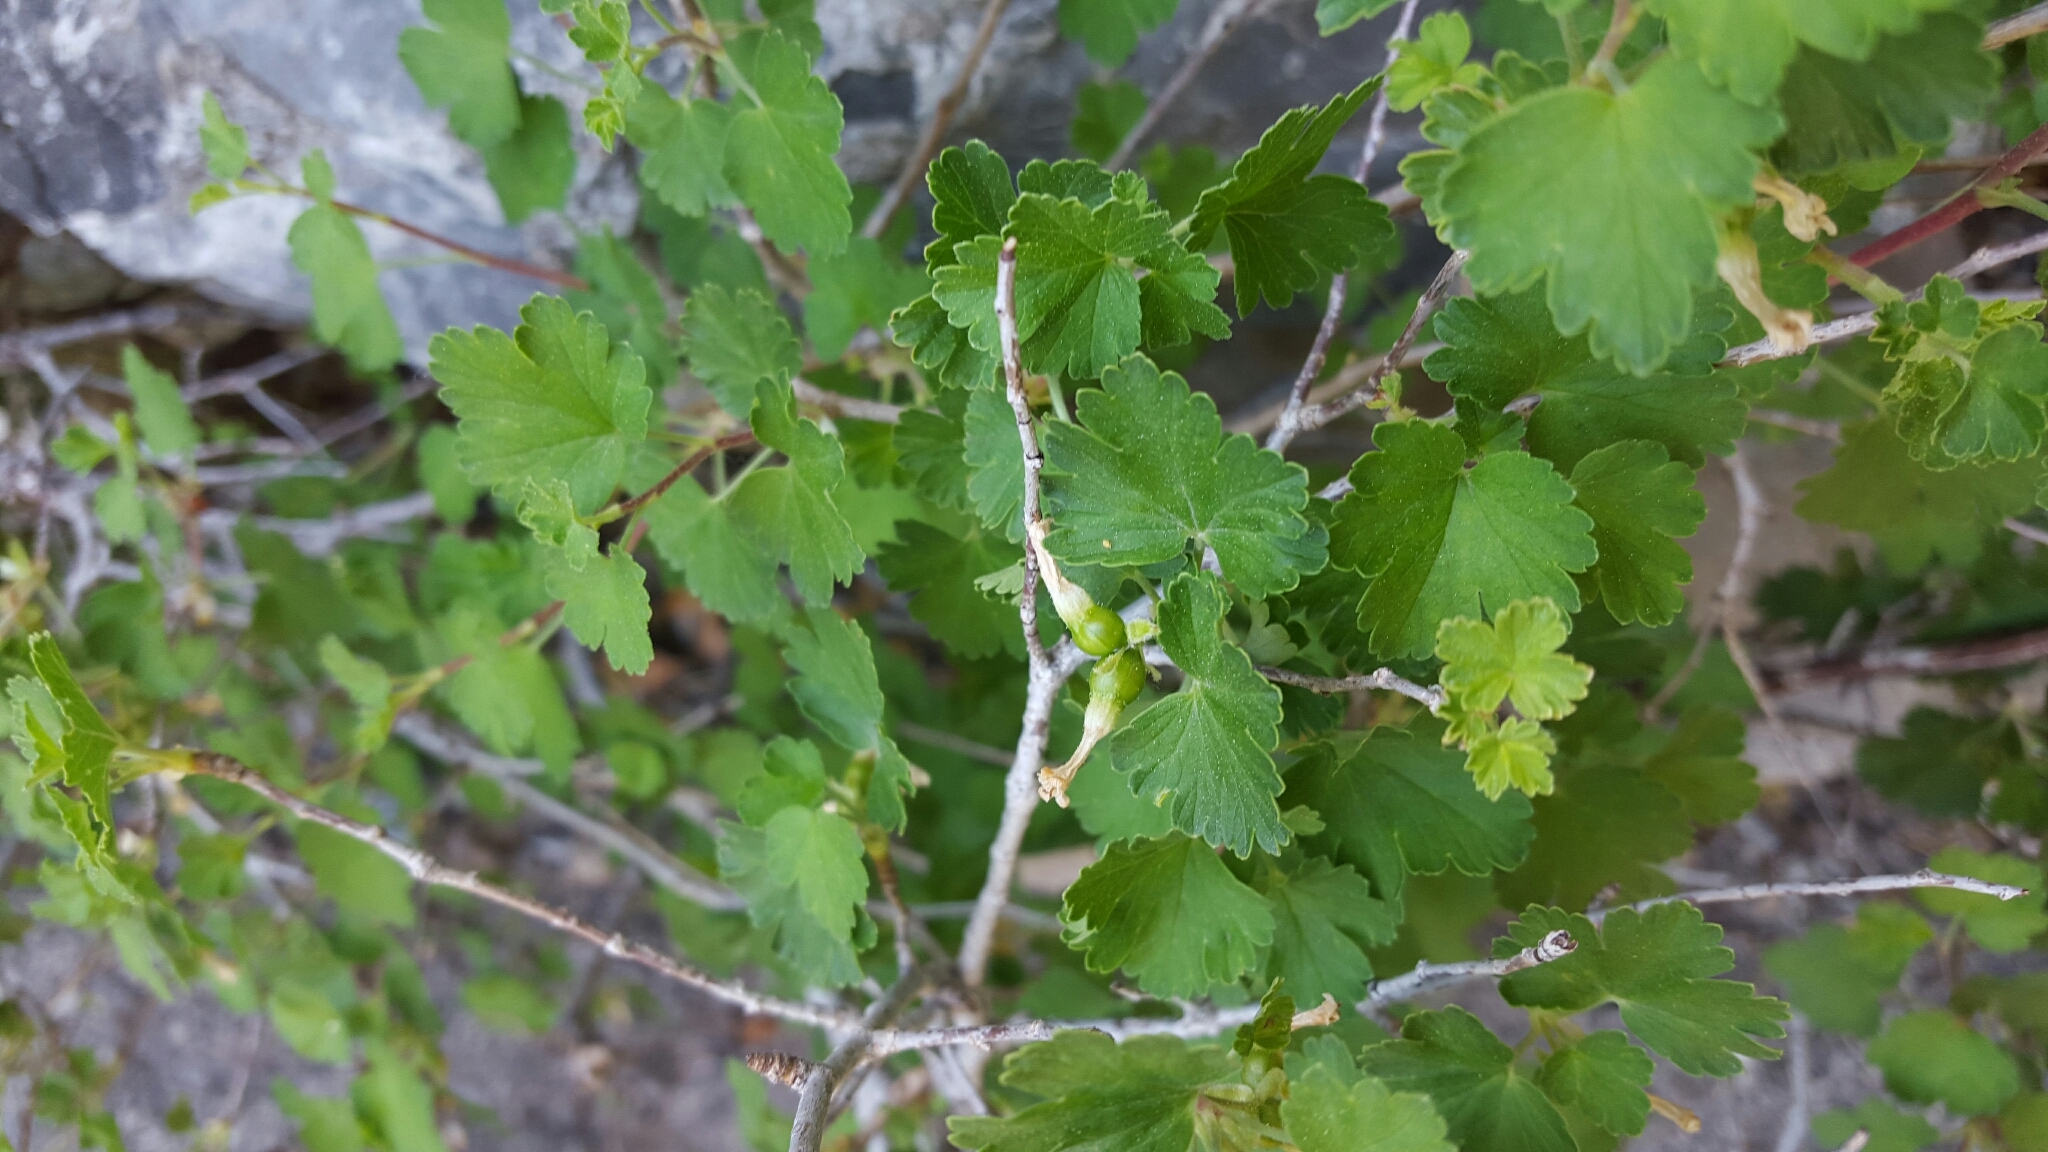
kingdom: Plantae
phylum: Tracheophyta
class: Magnoliopsida
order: Saxifragales
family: Grossulariaceae
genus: Ribes
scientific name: Ribes cereum
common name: Wax currant
